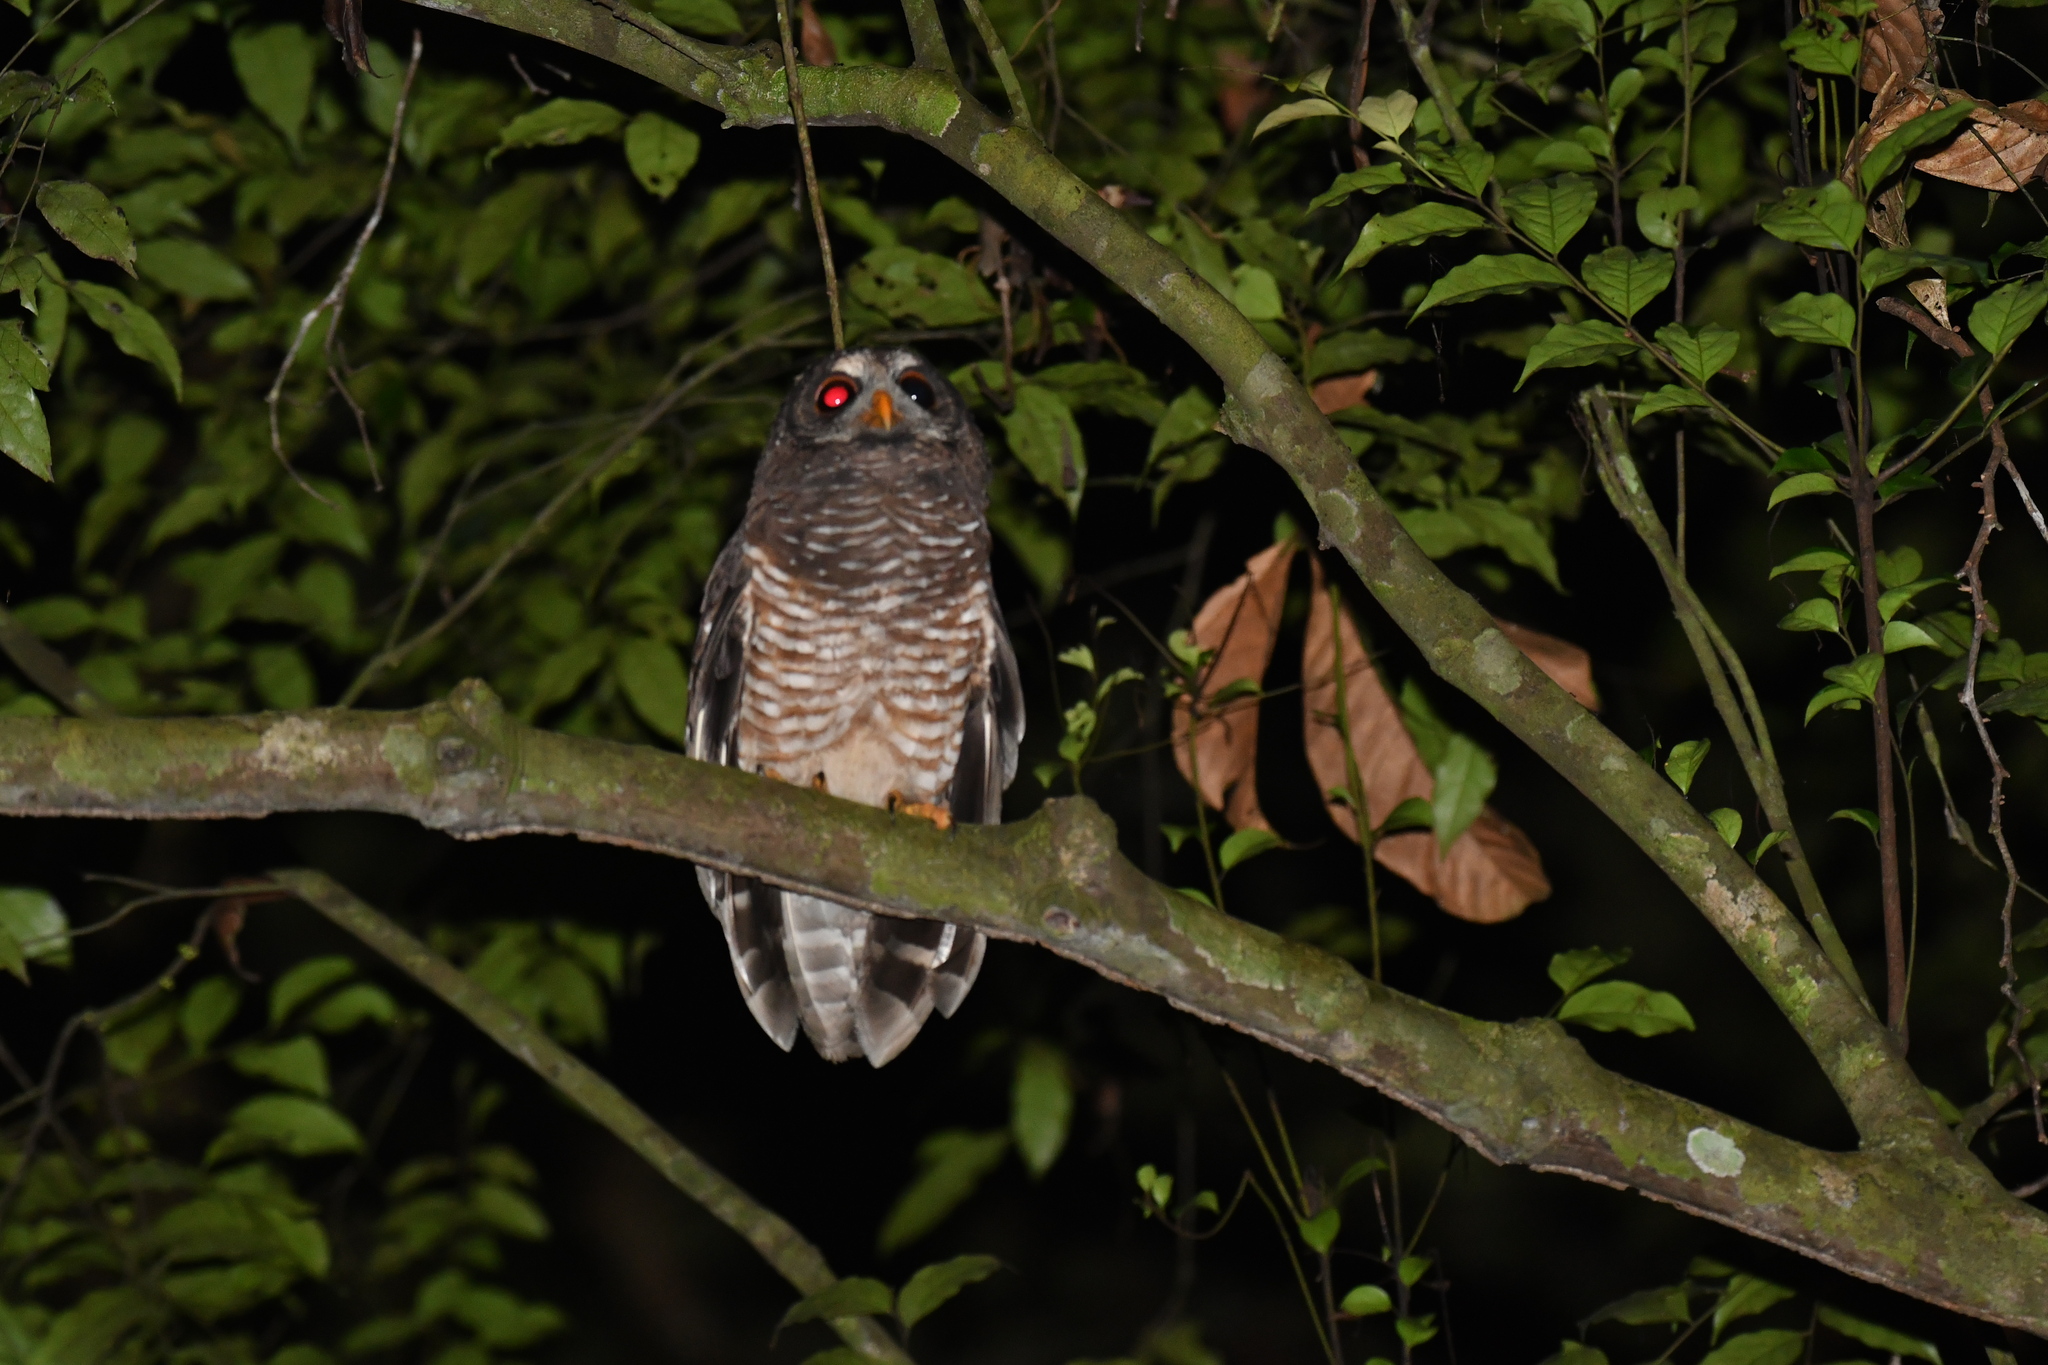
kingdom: Animalia
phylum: Chordata
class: Aves
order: Strigiformes
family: Strigidae
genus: Strix
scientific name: Strix woodfordii
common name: African wood owl
